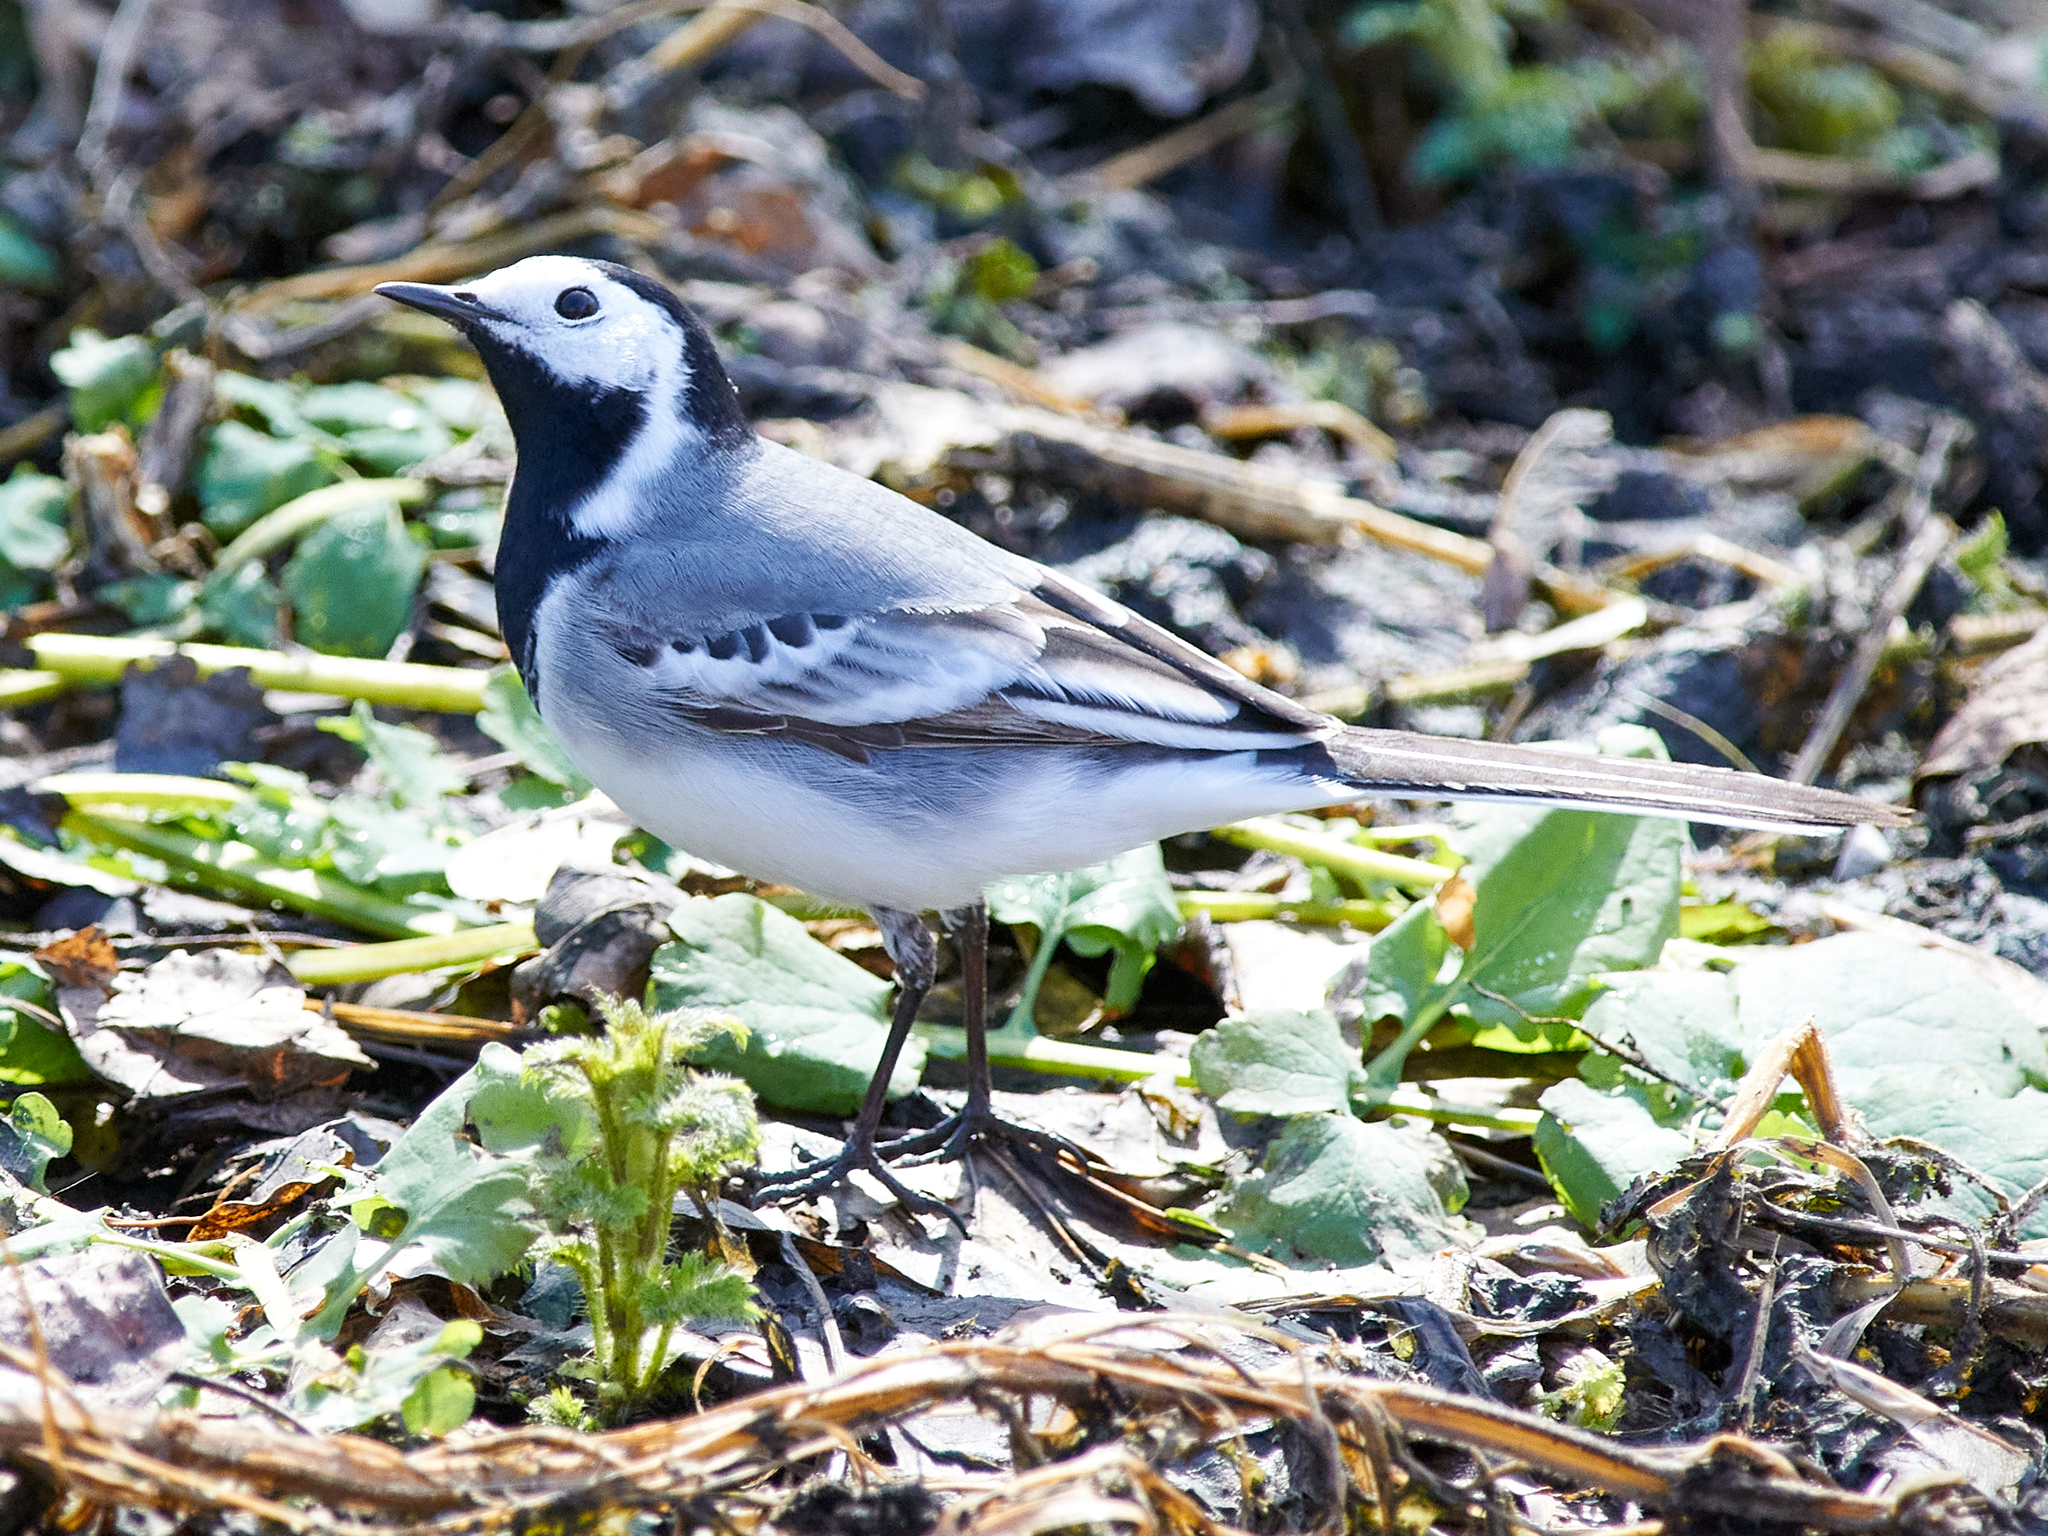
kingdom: Animalia
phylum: Chordata
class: Aves
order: Passeriformes
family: Motacillidae
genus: Motacilla
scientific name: Motacilla alba
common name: White wagtail
